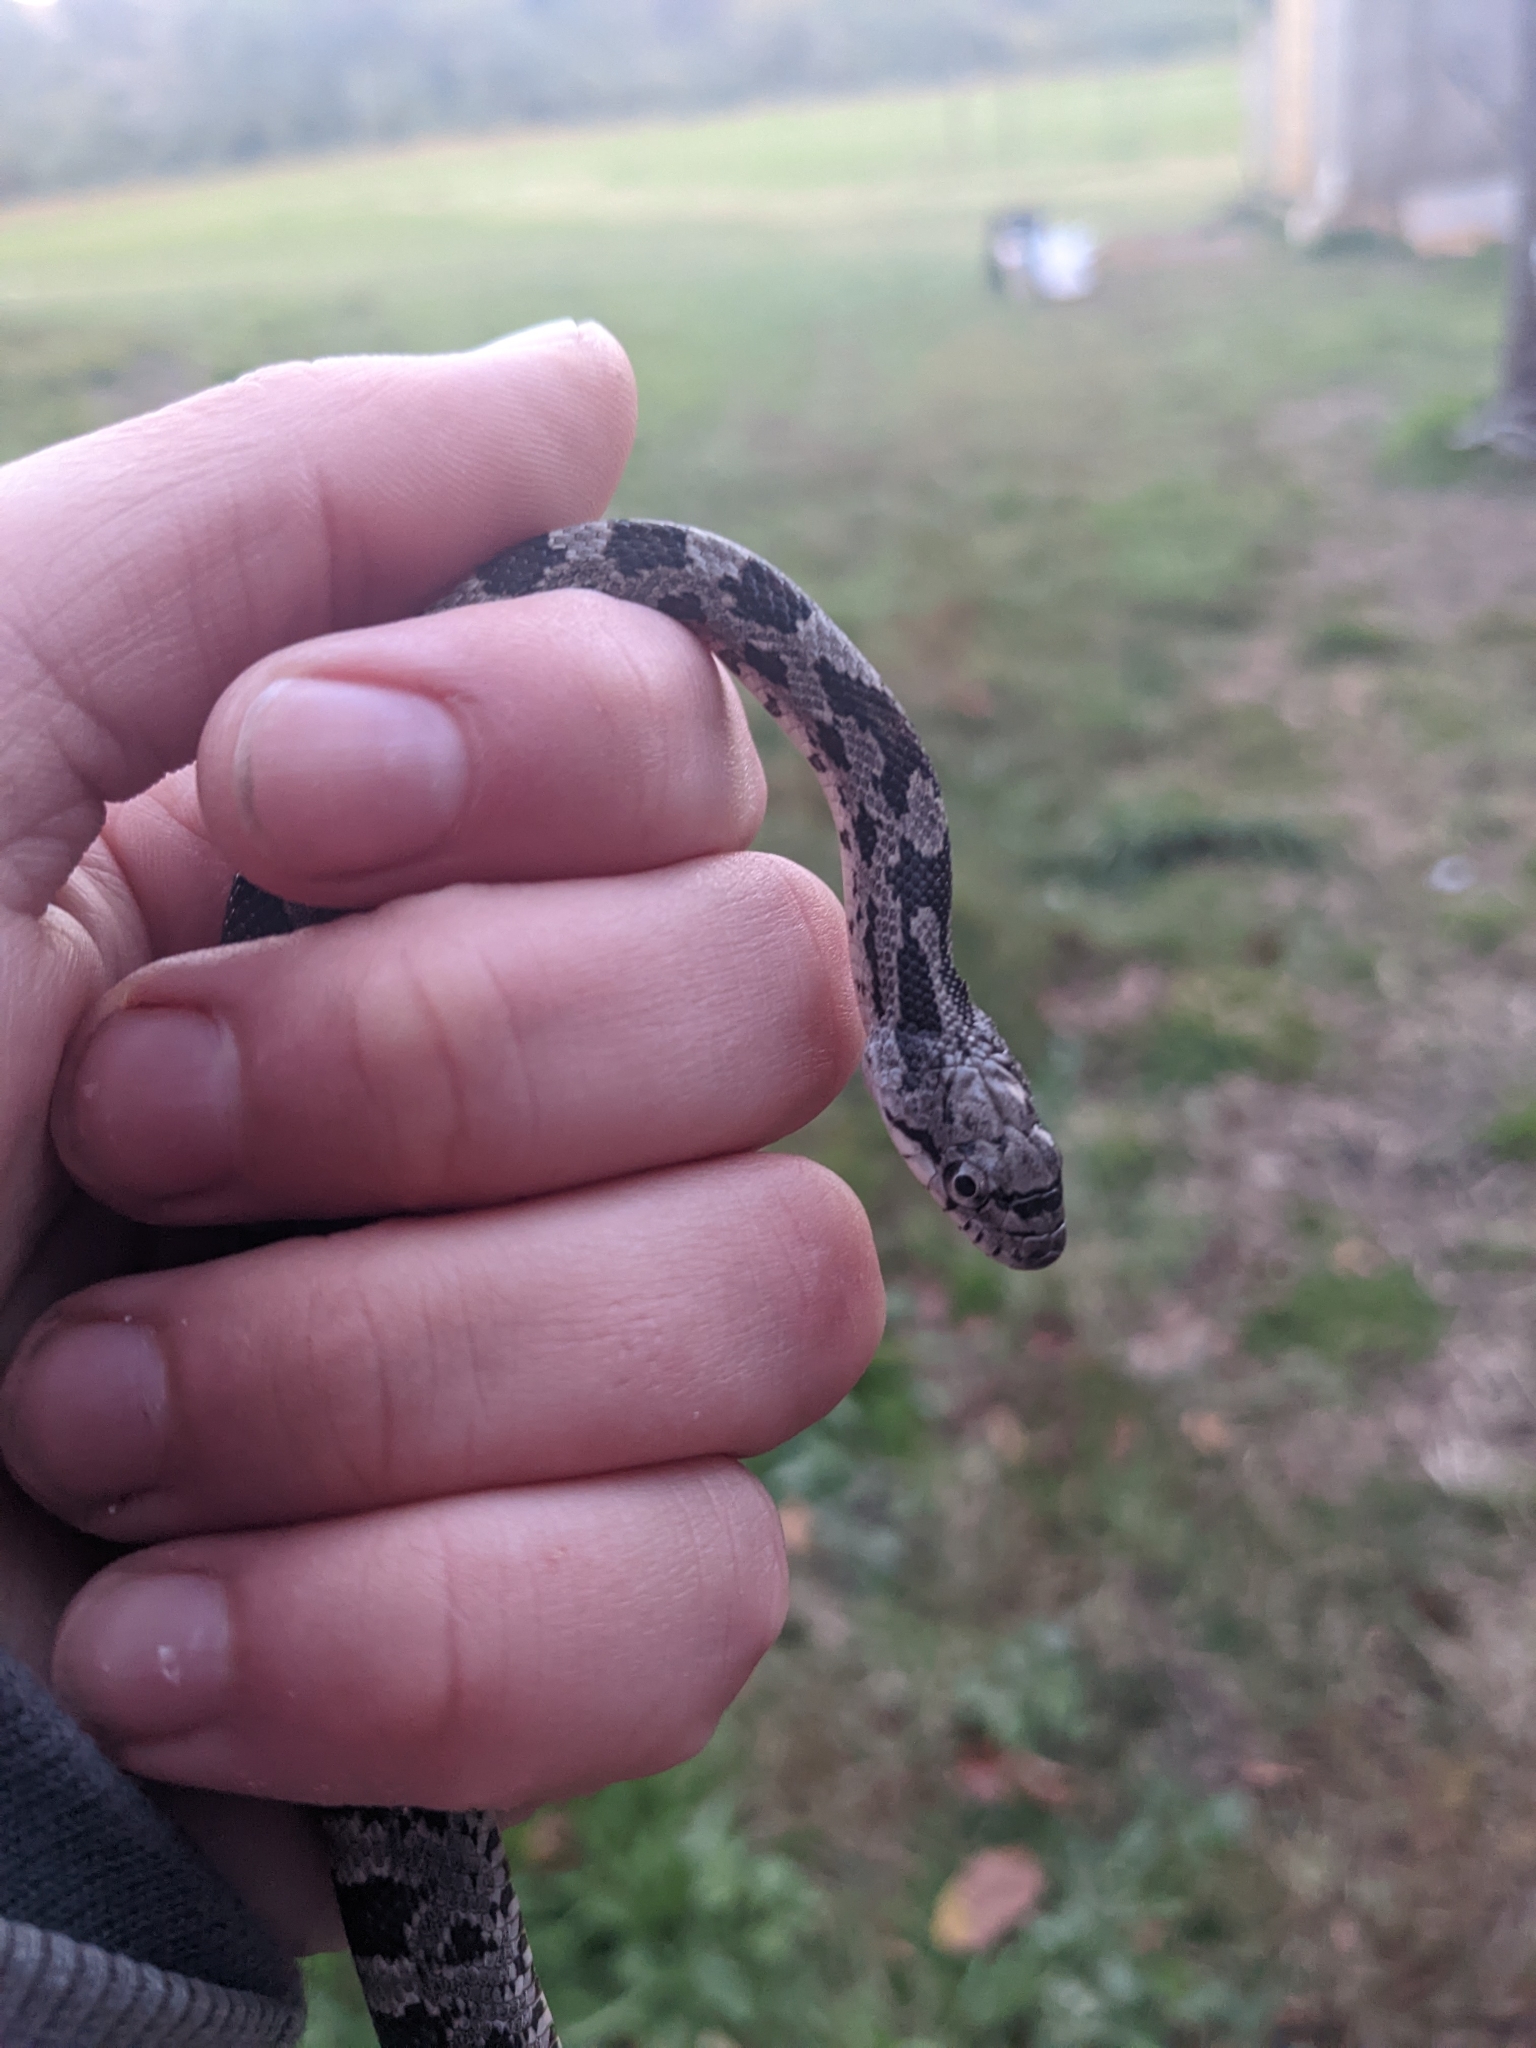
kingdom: Animalia
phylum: Chordata
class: Squamata
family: Colubridae
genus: Pantherophis
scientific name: Pantherophis alleghaniensis
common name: Eastern rat snake
